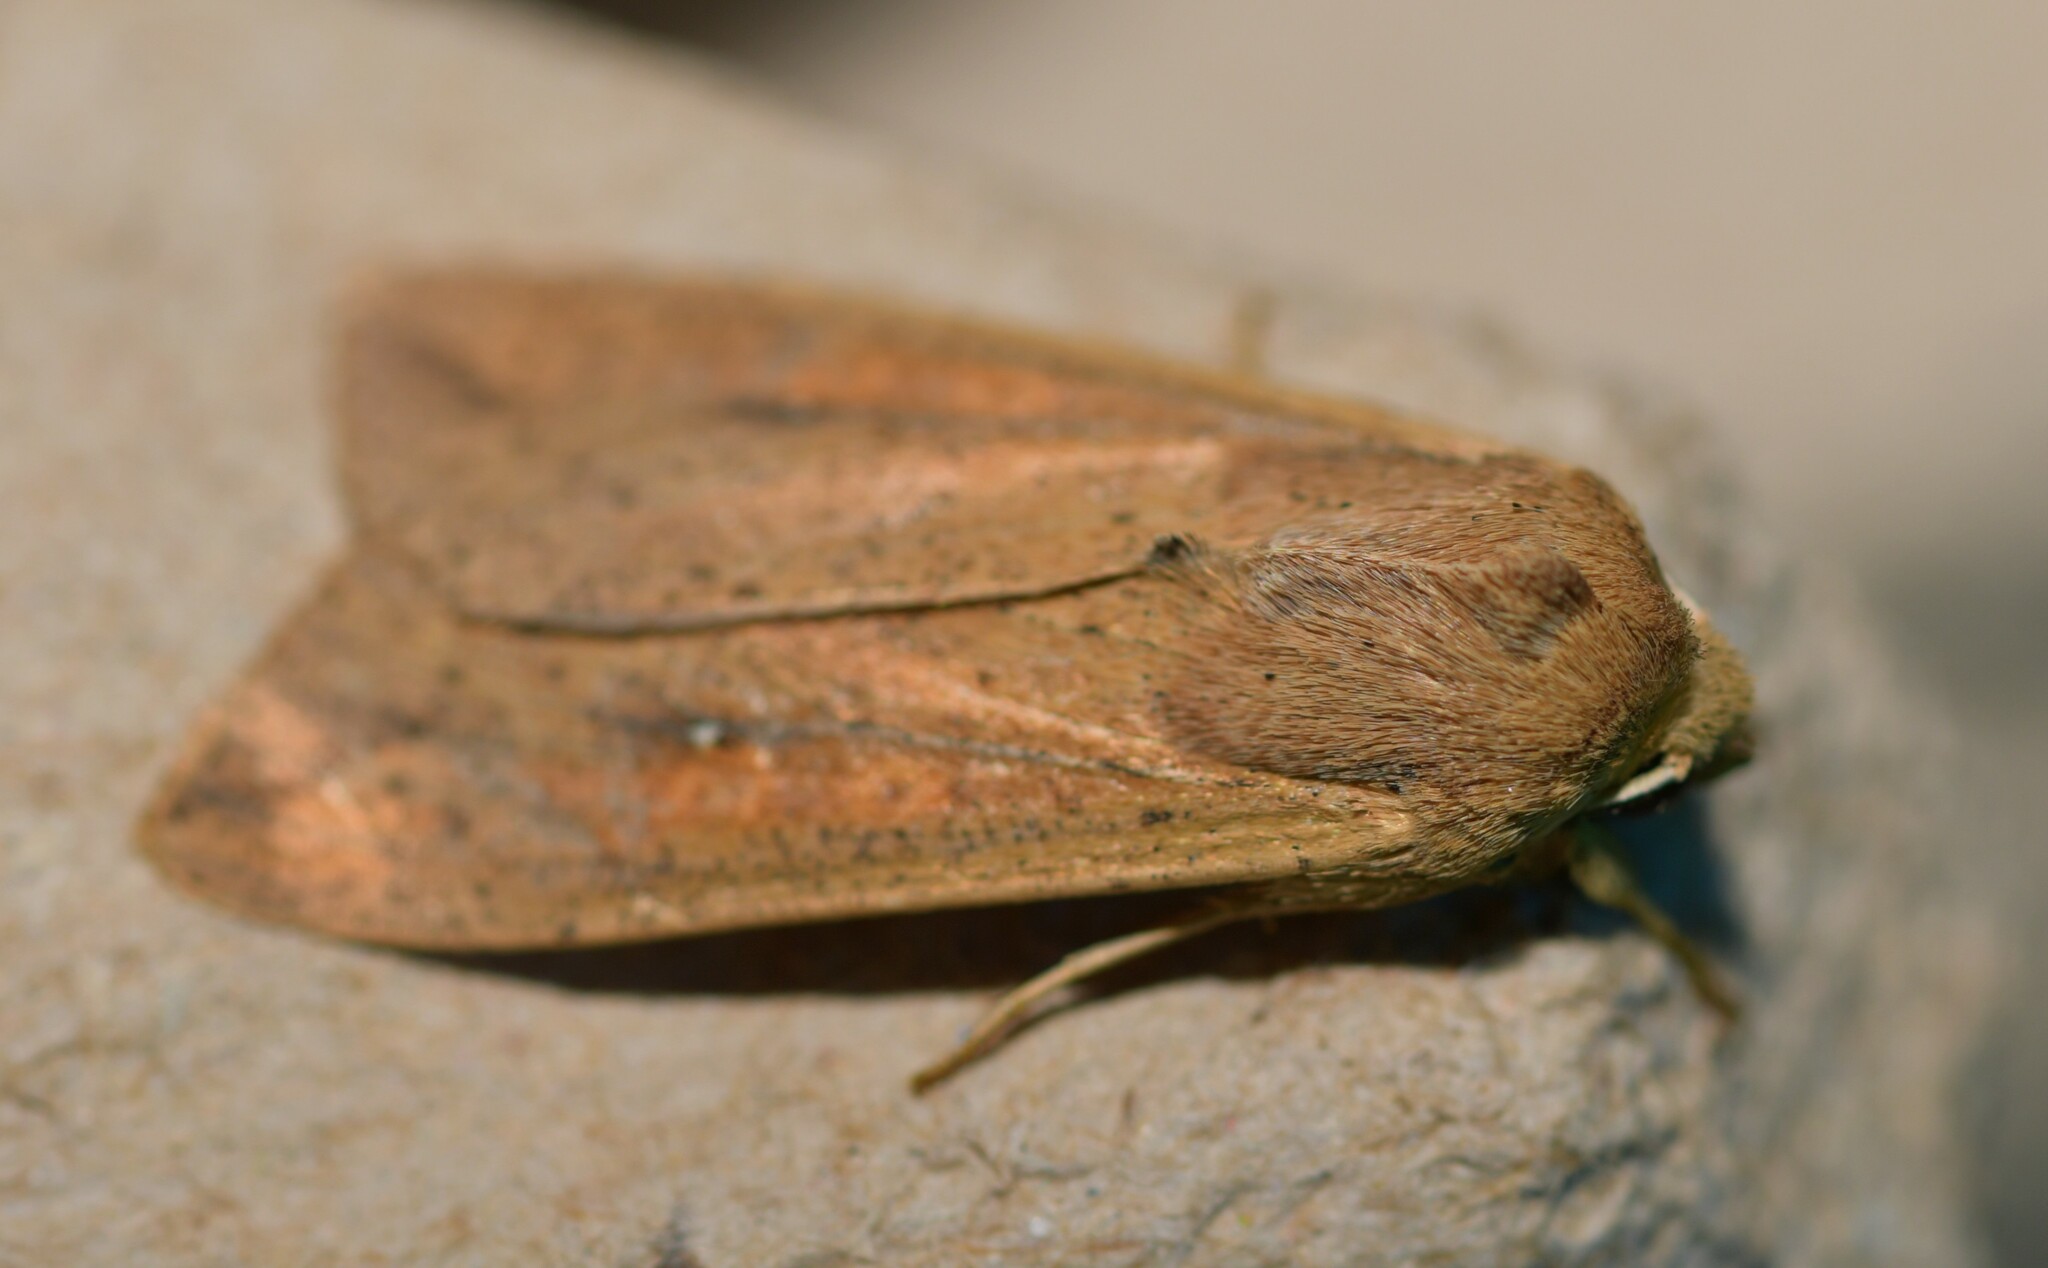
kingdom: Animalia
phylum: Arthropoda
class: Insecta
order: Lepidoptera
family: Noctuidae
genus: Mythimna
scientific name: Mythimna unipuncta
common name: White-speck
